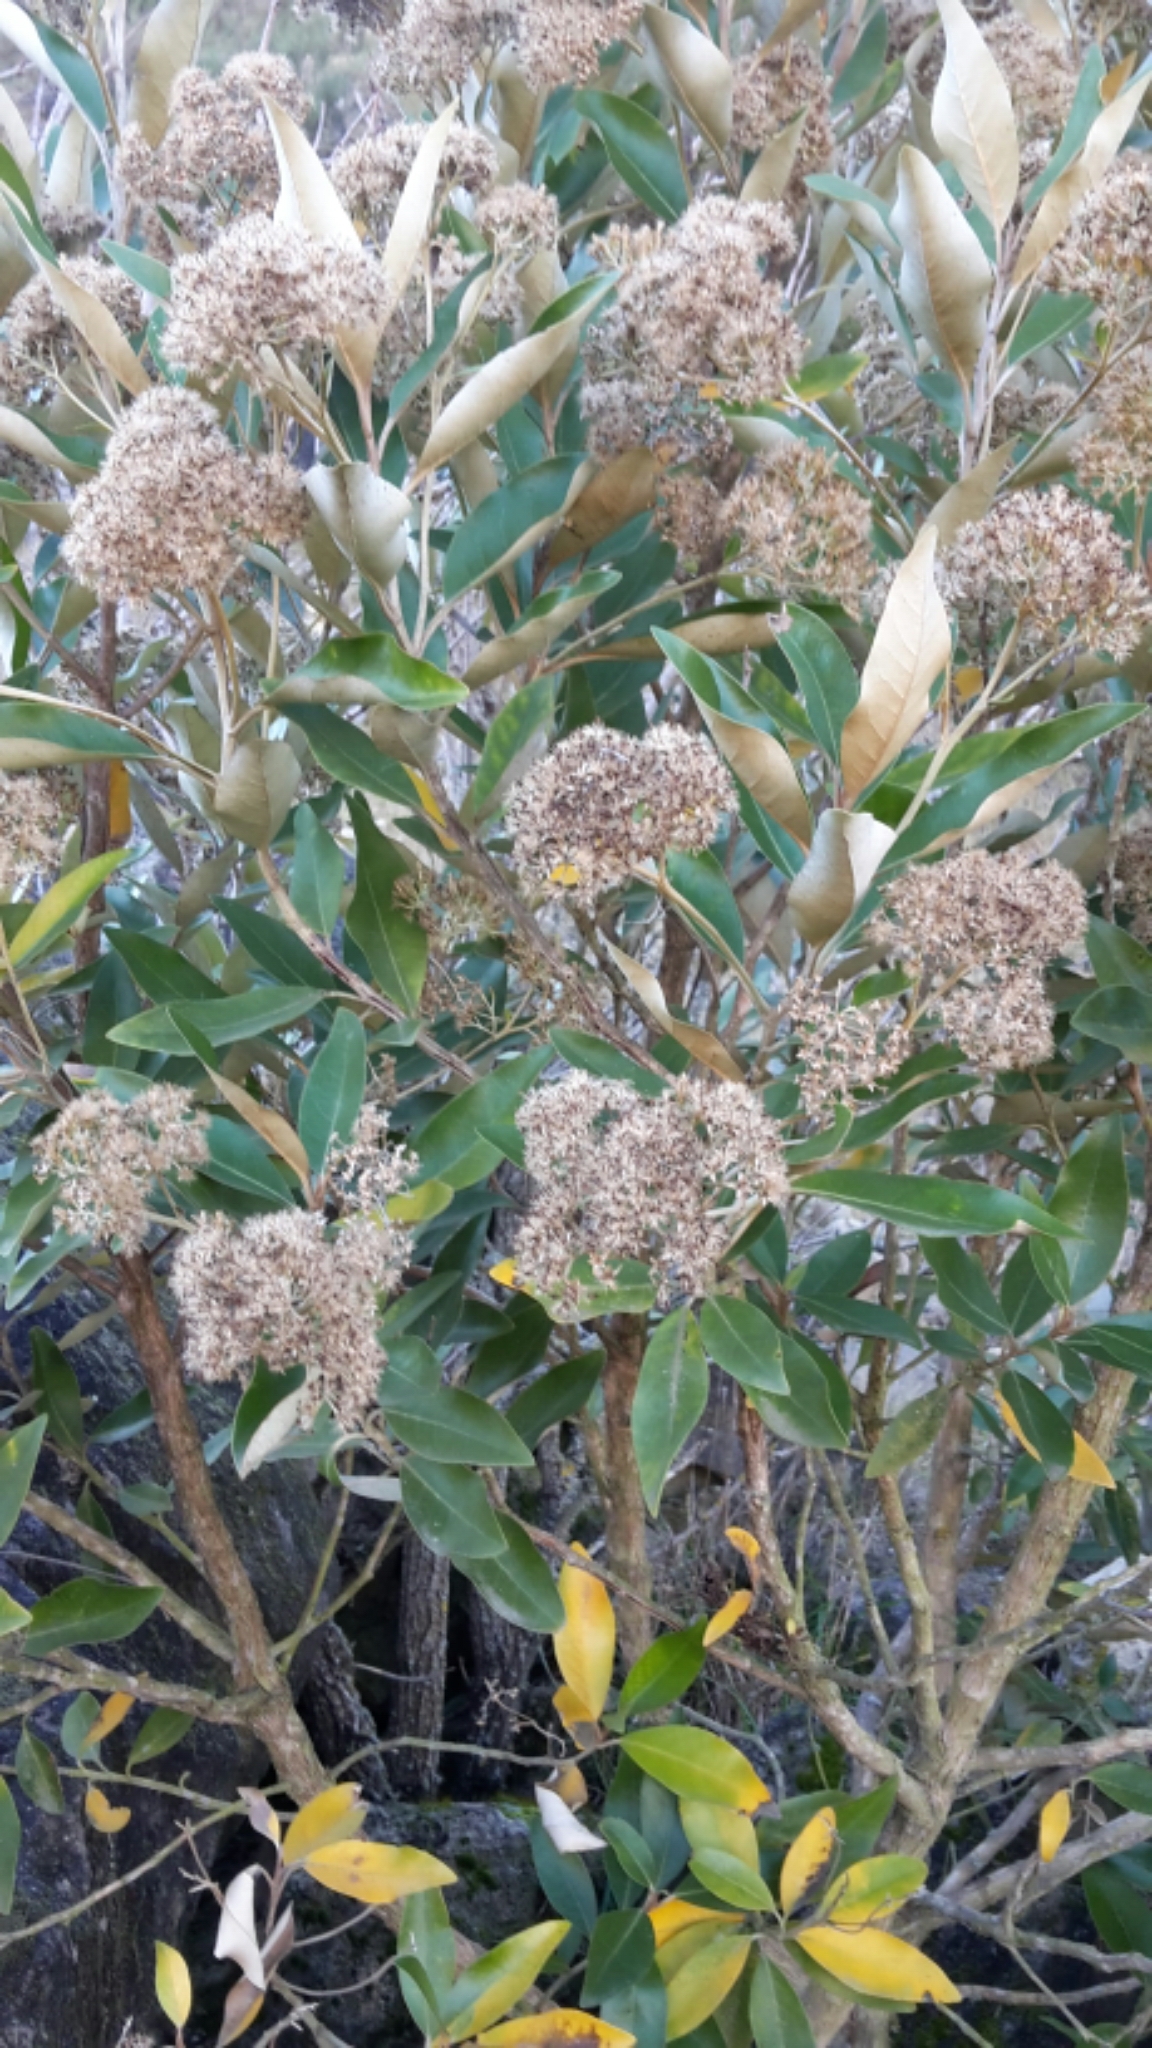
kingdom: Plantae
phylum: Tracheophyta
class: Magnoliopsida
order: Asterales
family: Asteraceae
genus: Olearia
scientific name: Olearia avicenniifolia
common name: Mangrove-leaf daisybush
